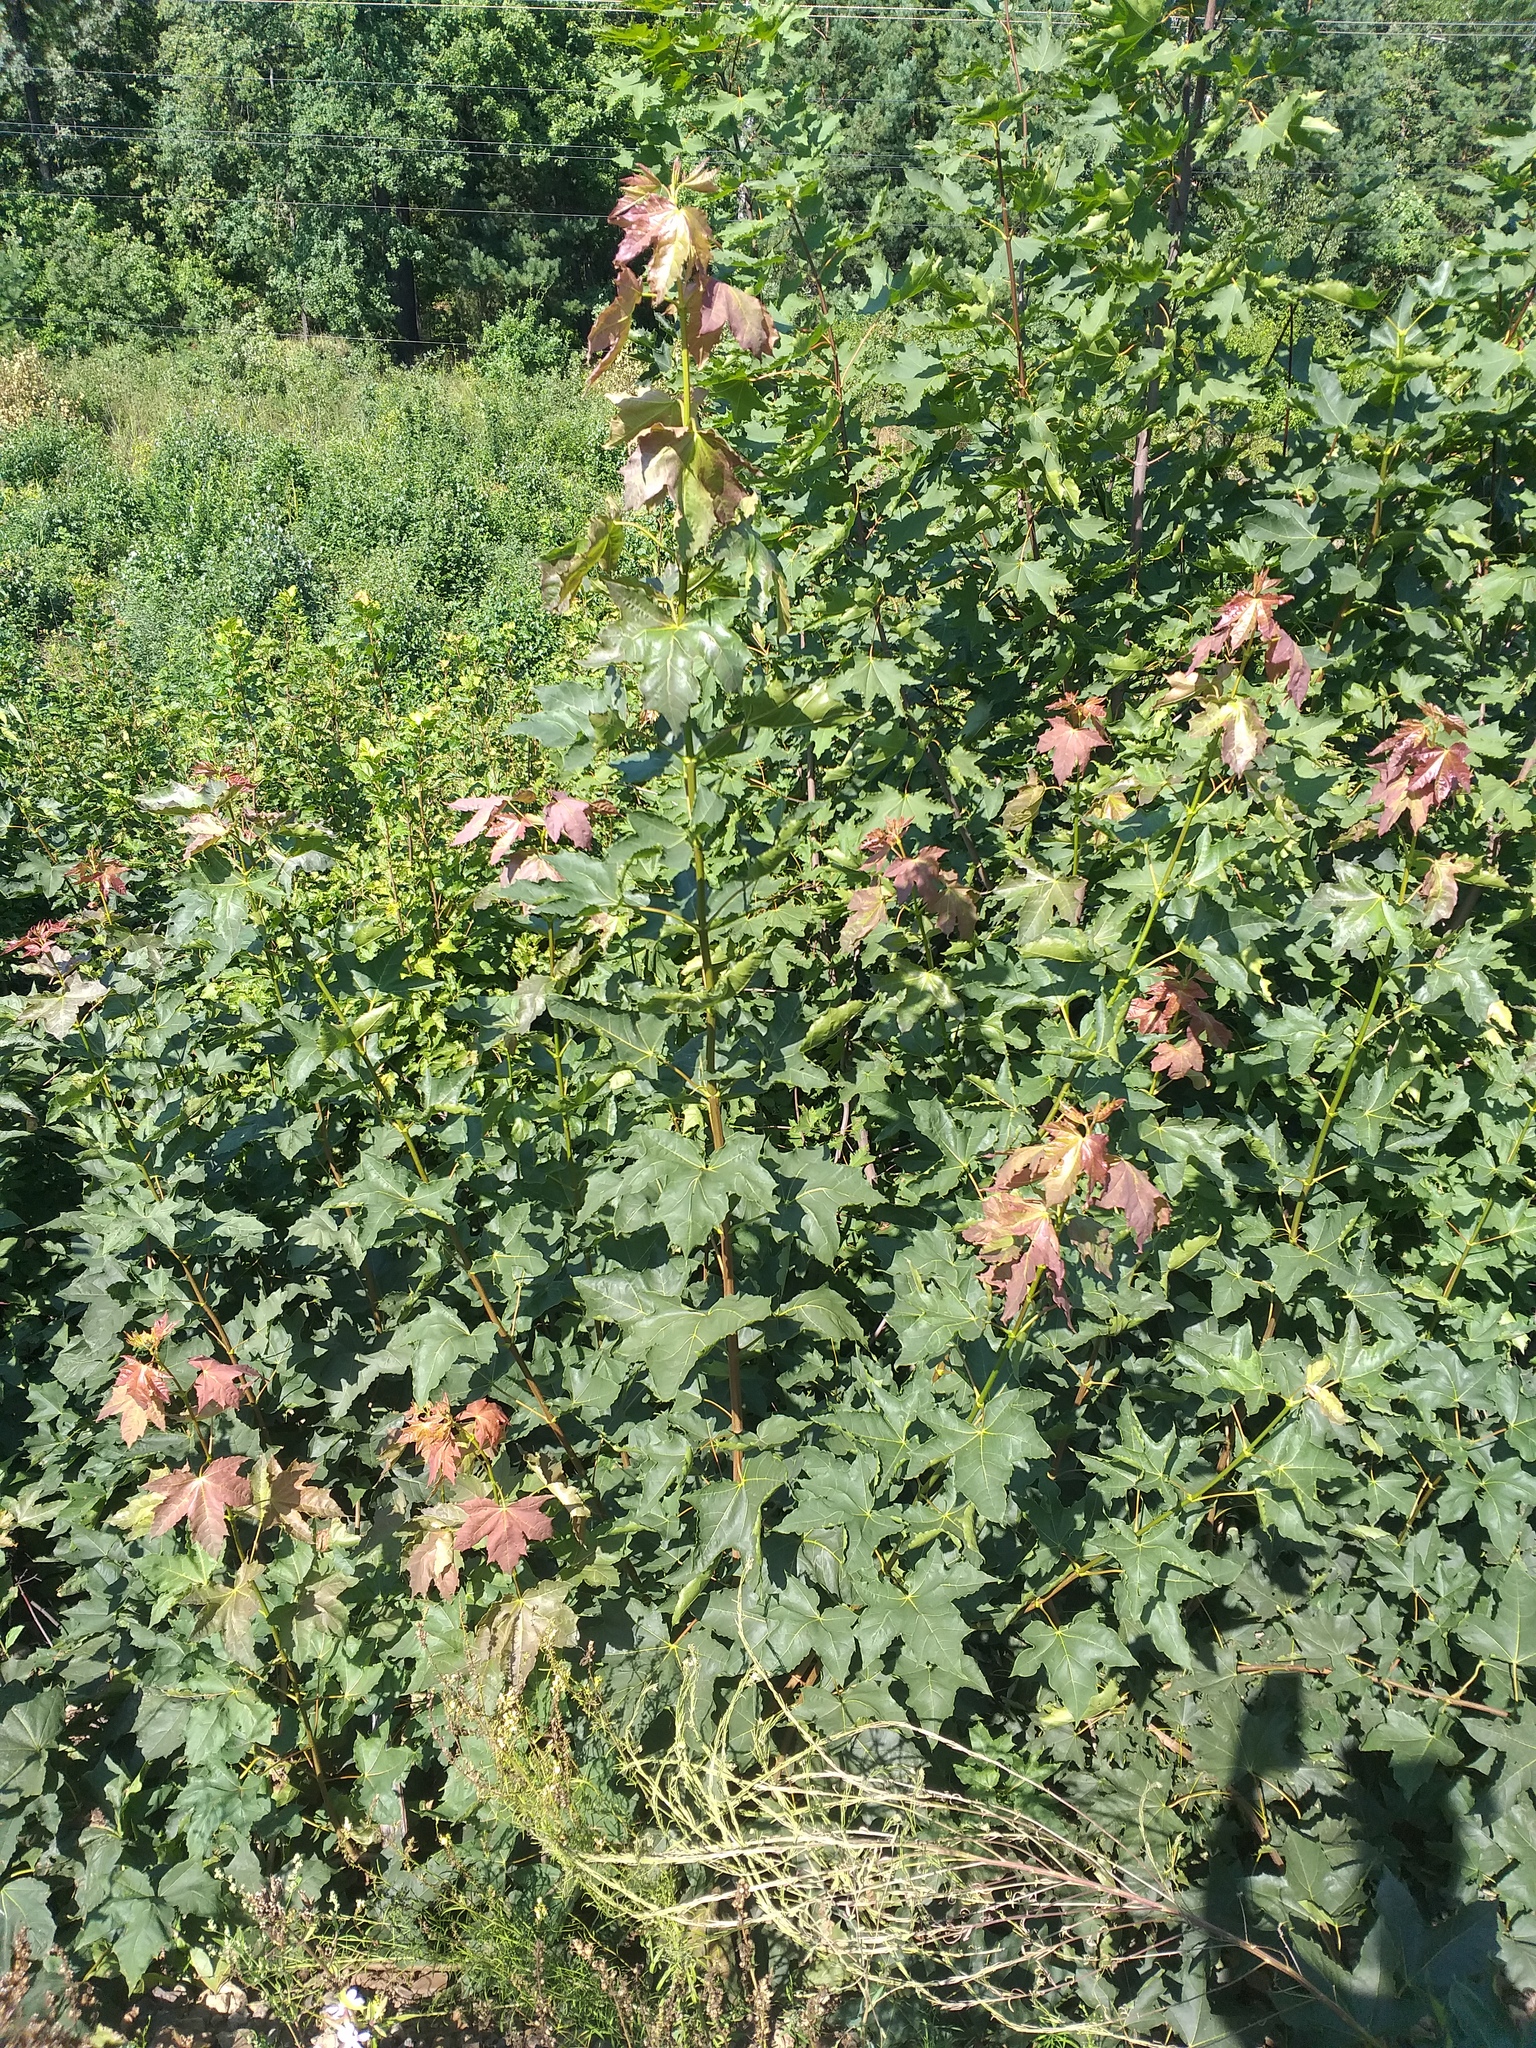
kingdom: Plantae
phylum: Tracheophyta
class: Magnoliopsida
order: Sapindales
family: Sapindaceae
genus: Acer
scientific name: Acer platanoides
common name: Norway maple
